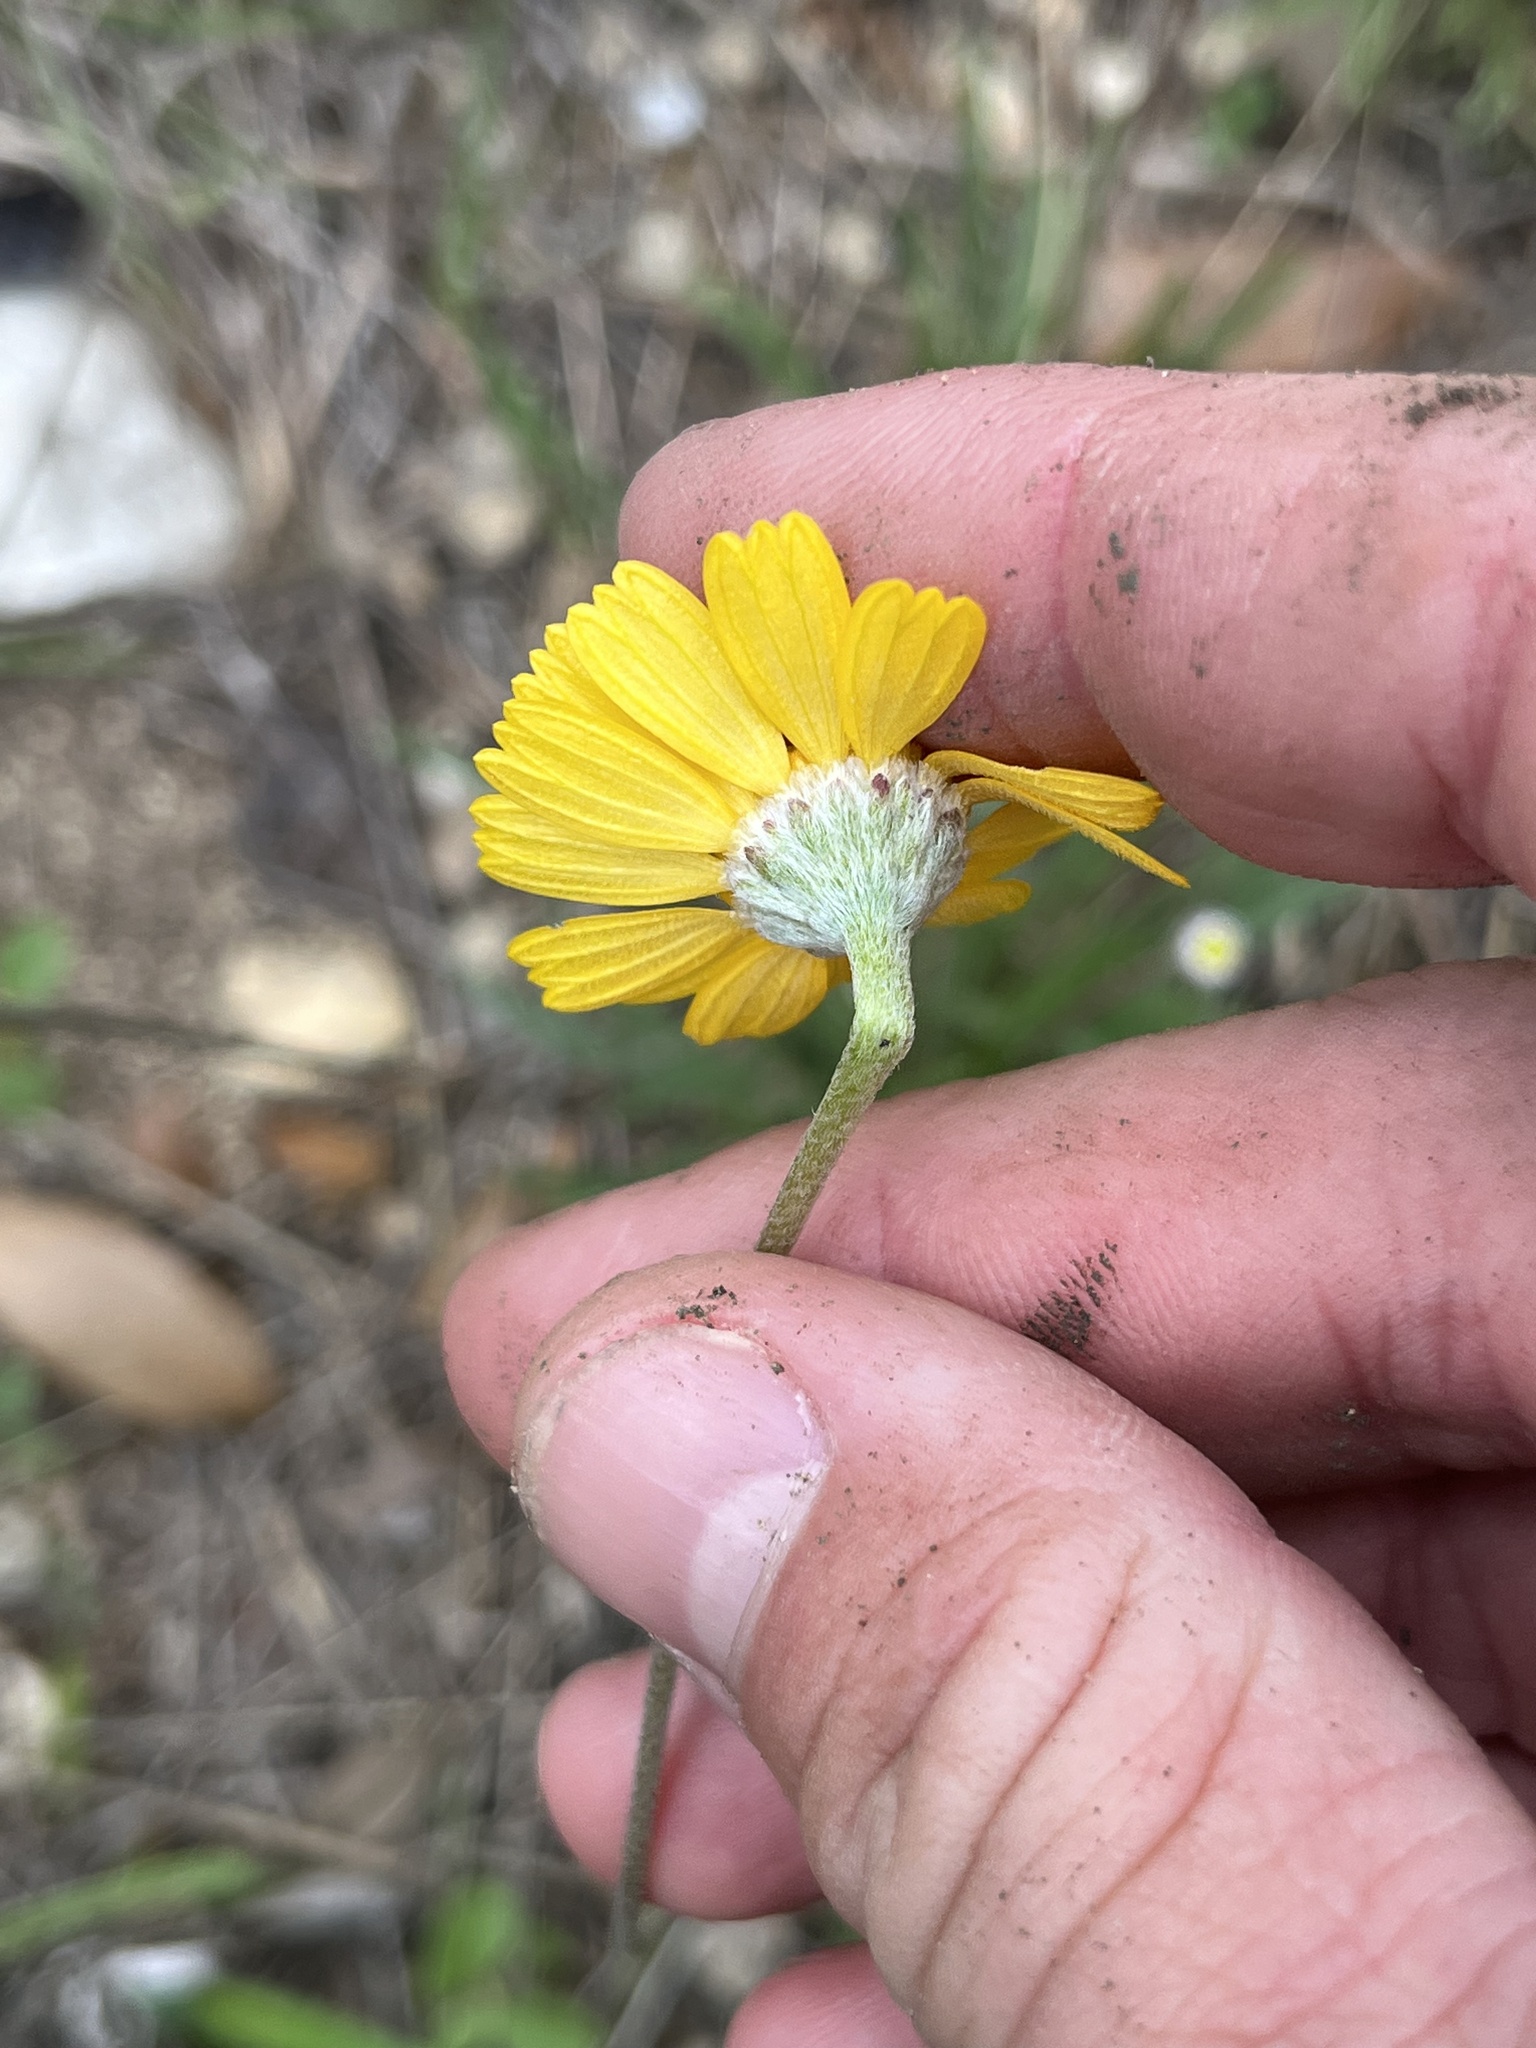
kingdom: Plantae
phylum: Tracheophyta
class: Magnoliopsida
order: Asterales
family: Asteraceae
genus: Tetraneuris
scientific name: Tetraneuris scaposa
